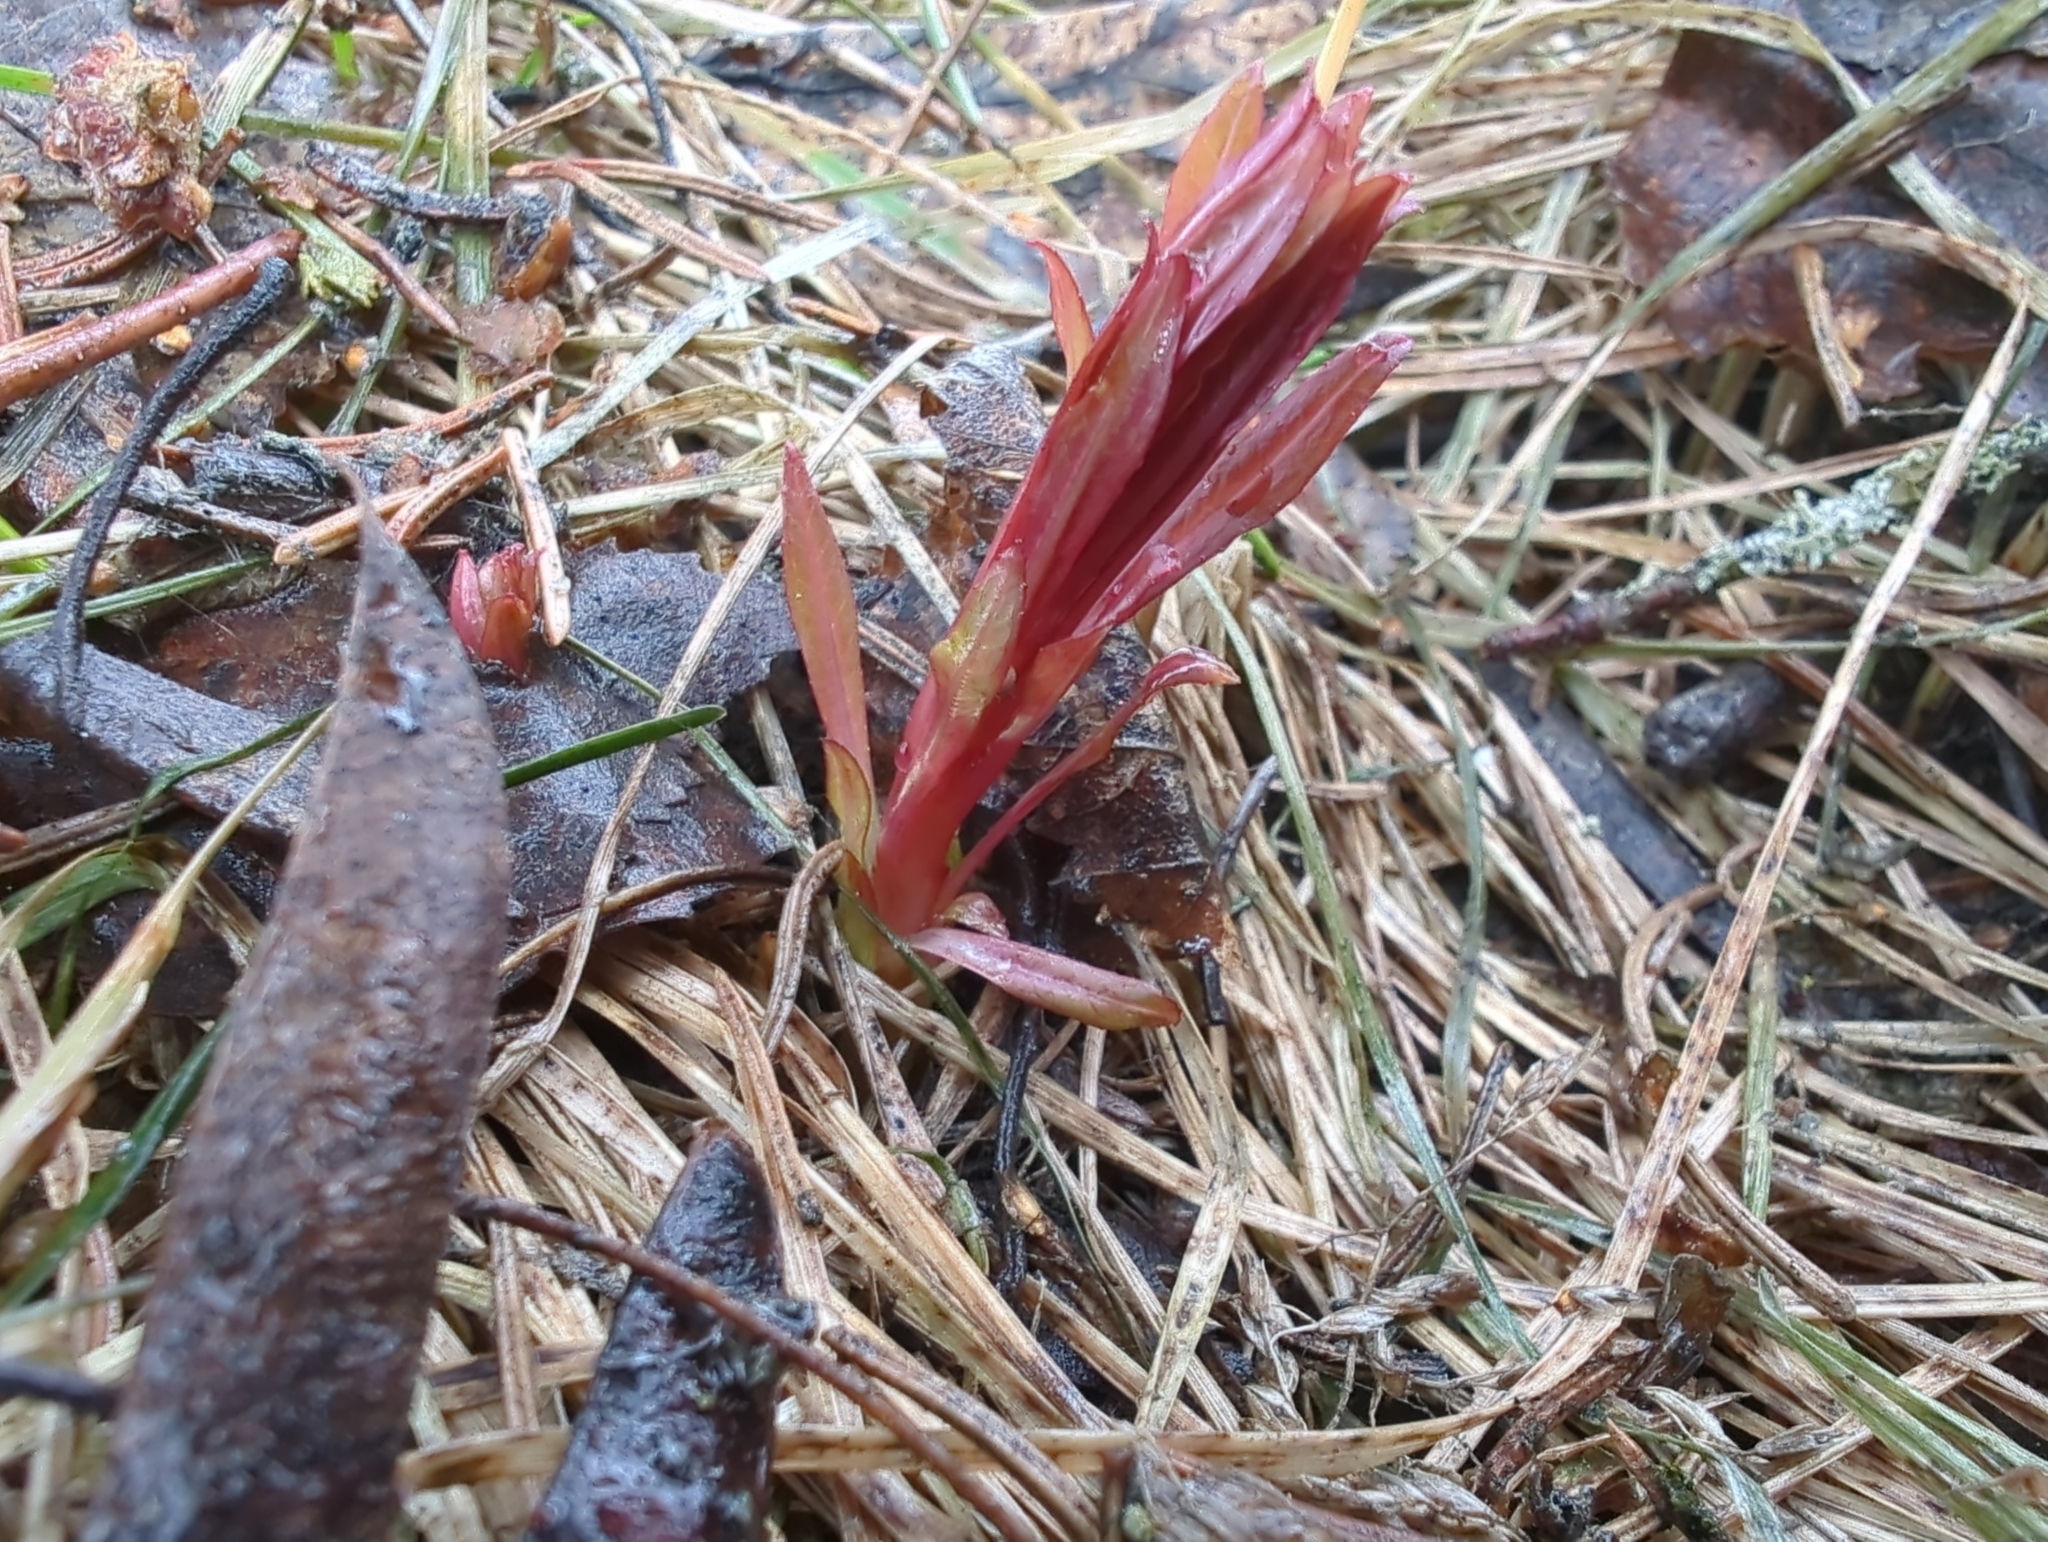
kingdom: Plantae
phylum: Tracheophyta
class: Magnoliopsida
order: Myrtales
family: Onagraceae
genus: Chamaenerion
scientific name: Chamaenerion angustifolium
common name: Fireweed
